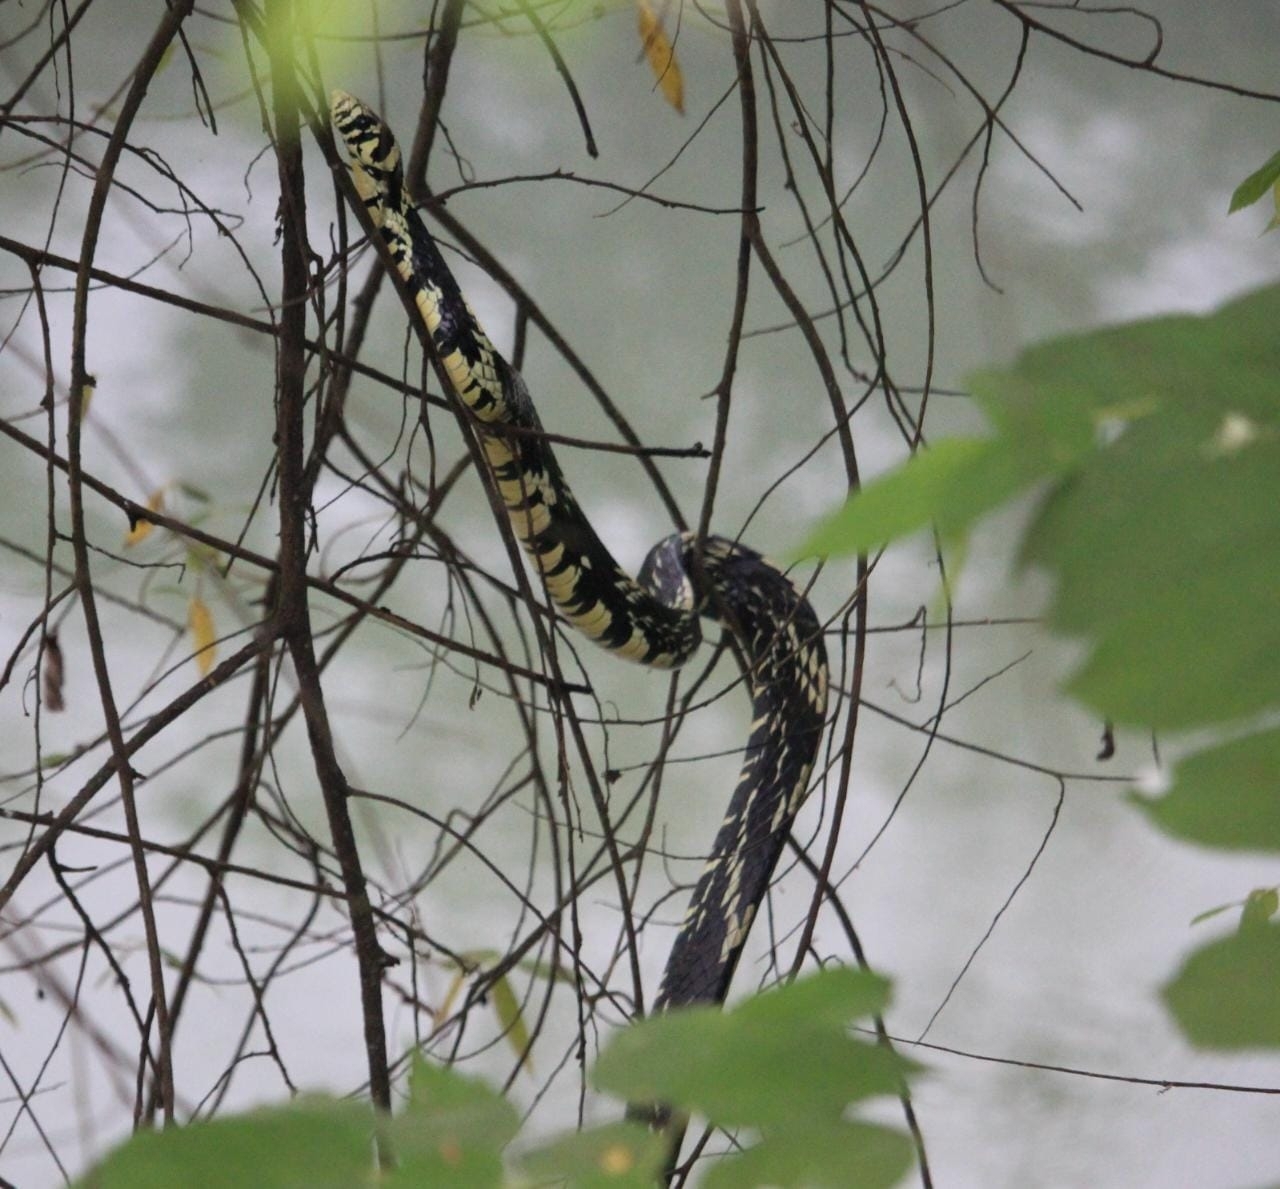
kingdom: Animalia
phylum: Chordata
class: Squamata
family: Colubridae
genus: Spilotes
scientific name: Spilotes pullatus
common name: Chicken snake
